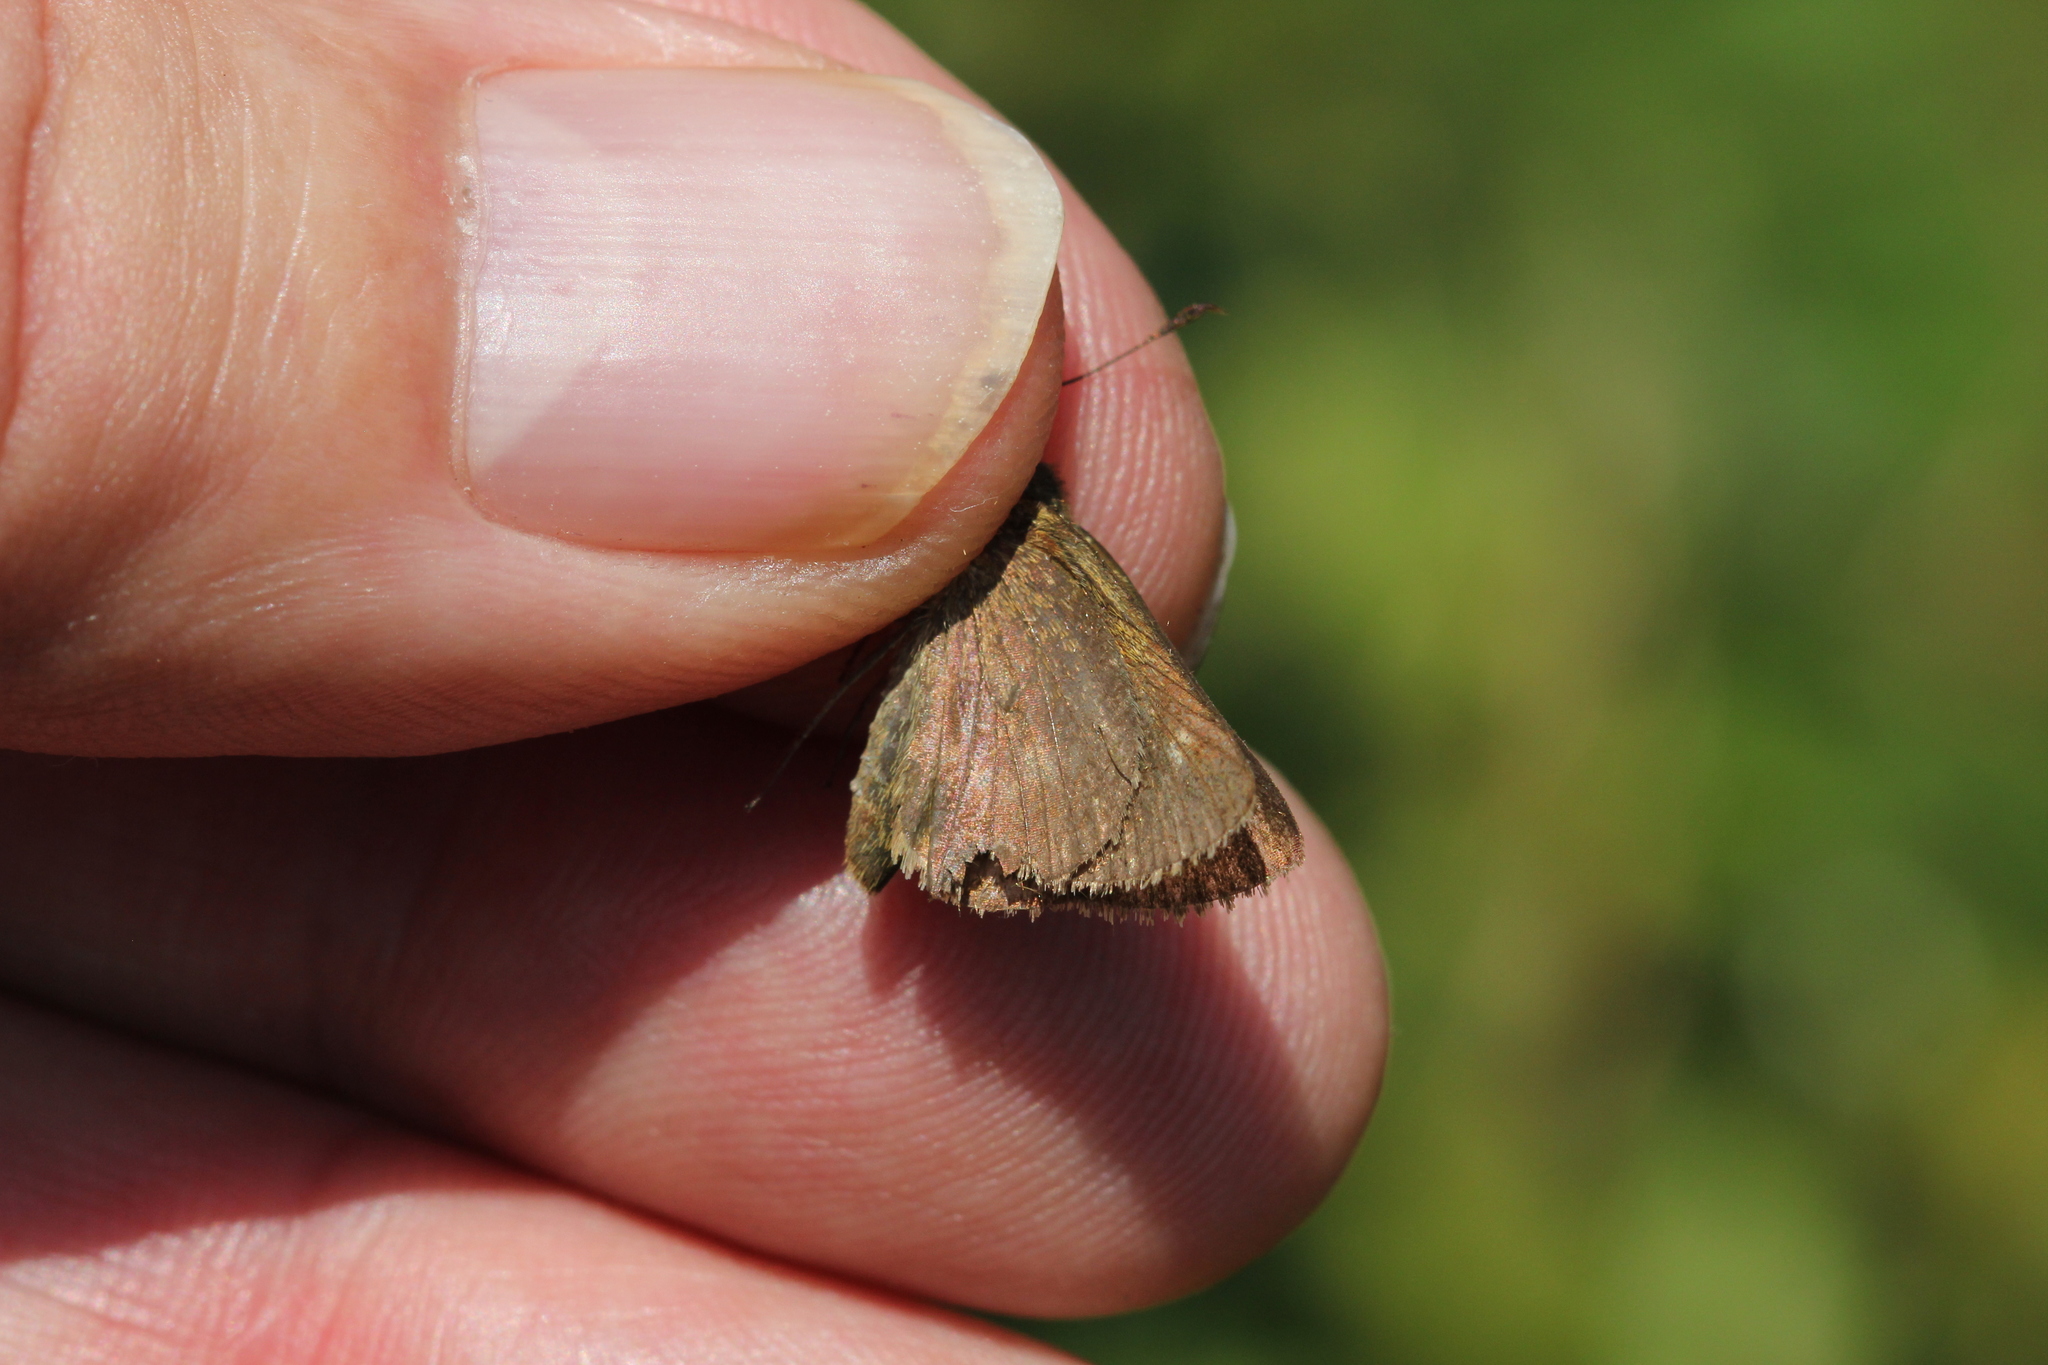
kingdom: Animalia
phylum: Arthropoda
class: Insecta
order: Lepidoptera
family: Hesperiidae
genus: Polites
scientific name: Polites egeremet
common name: Northern broken-dash
